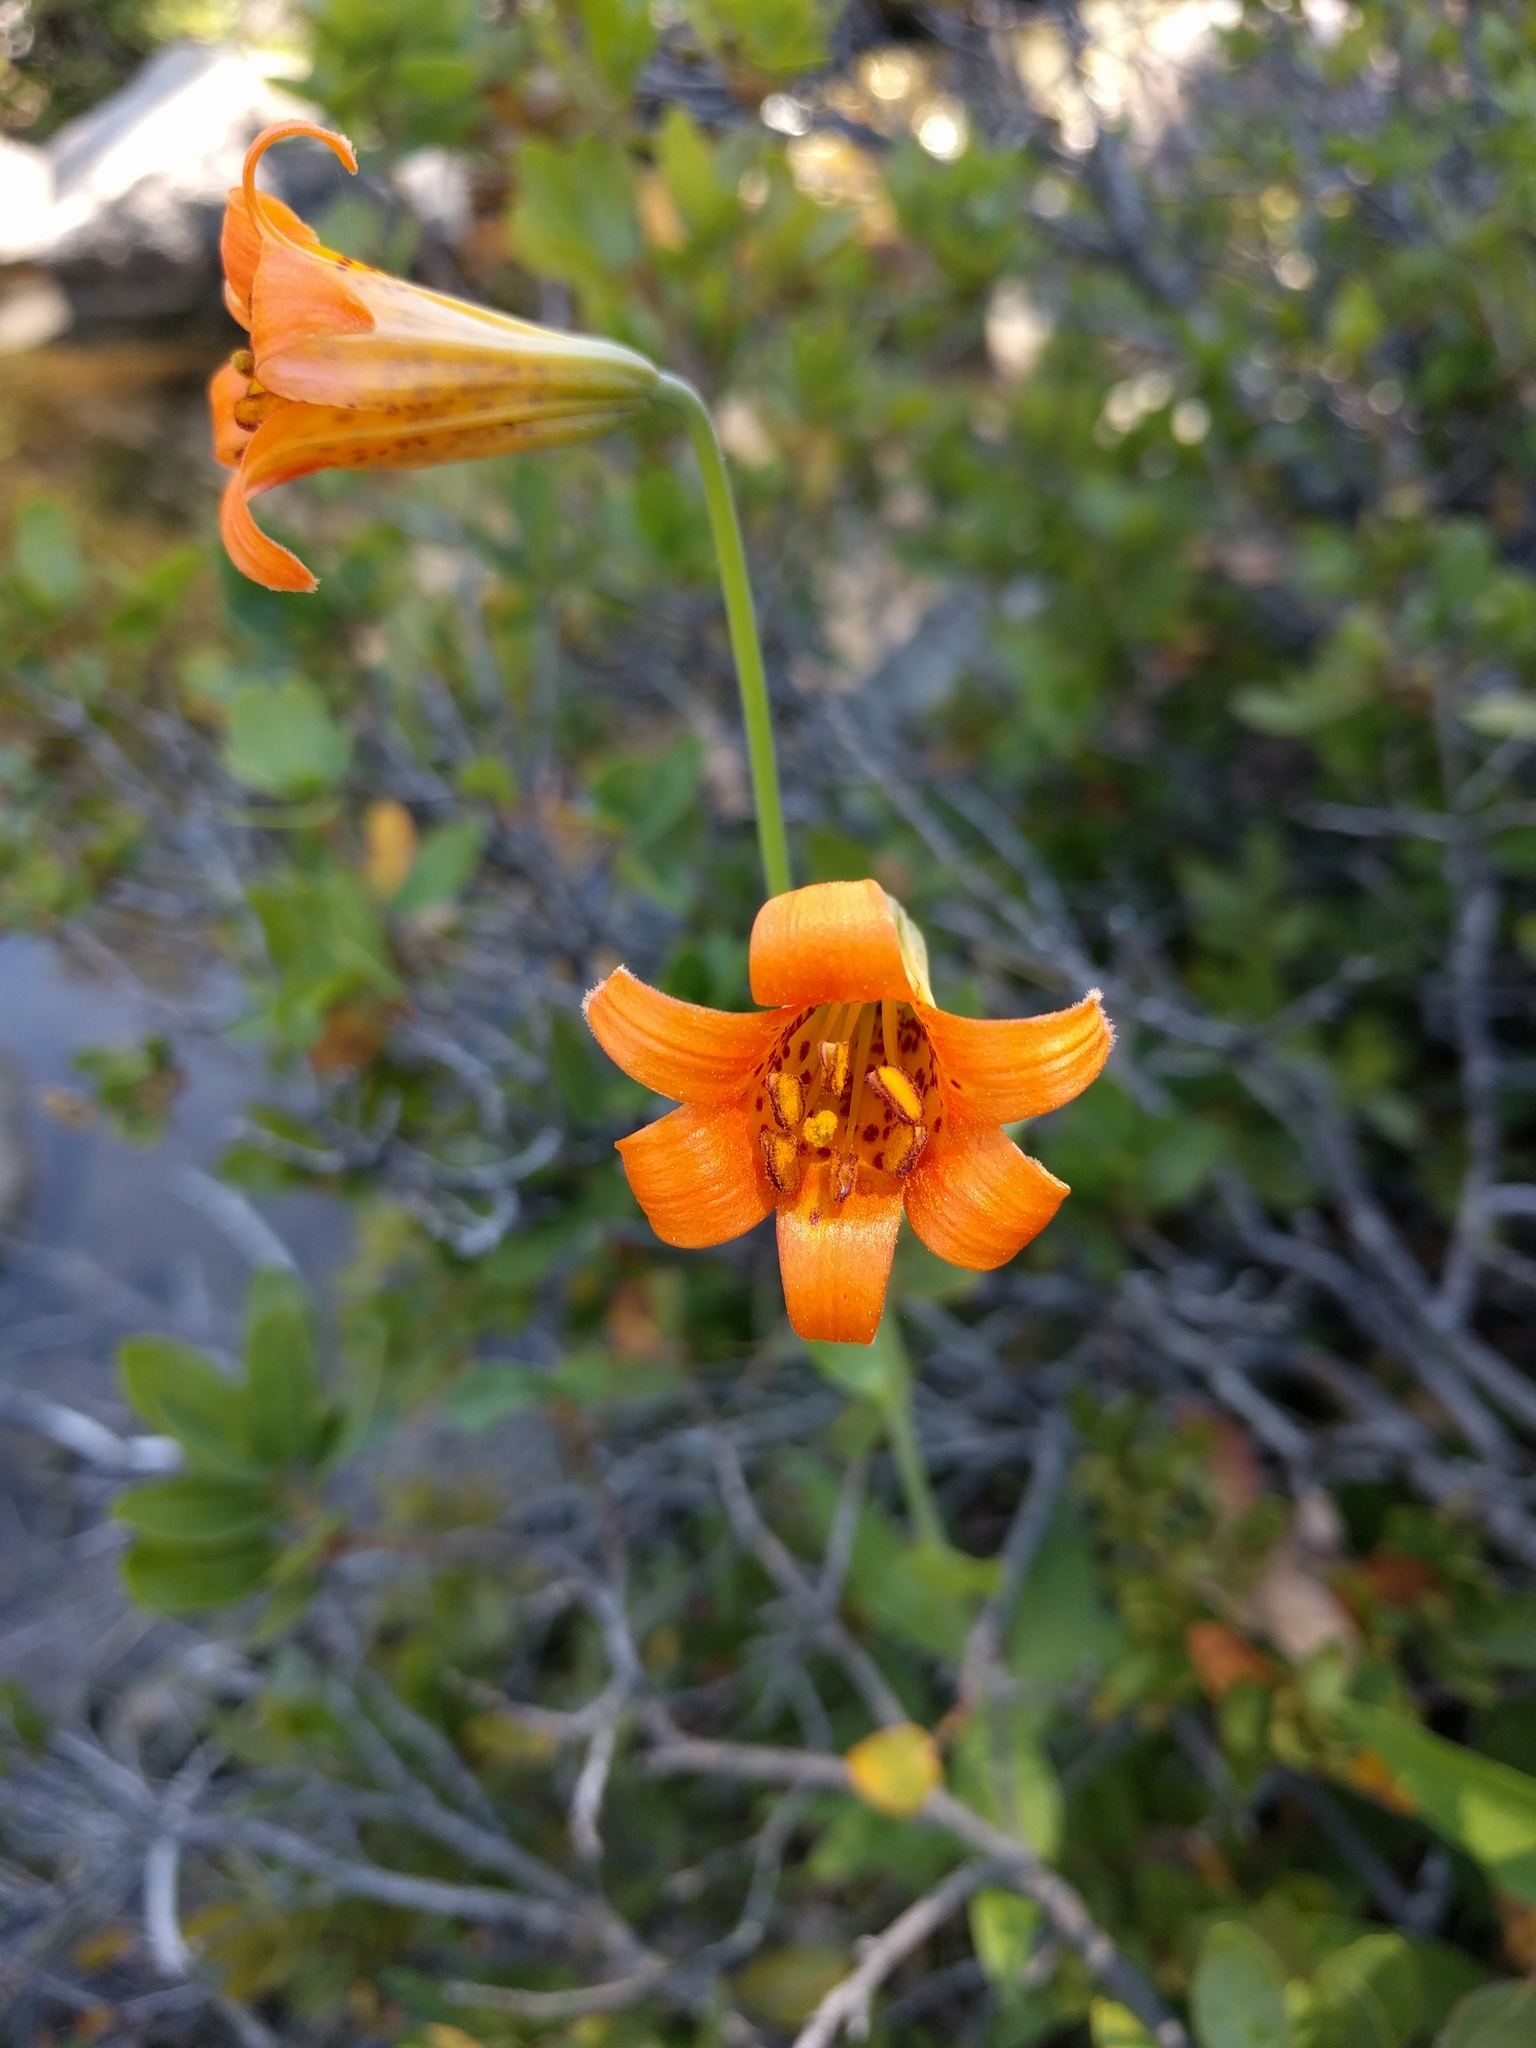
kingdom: Plantae
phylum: Tracheophyta
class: Liliopsida
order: Liliales
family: Liliaceae
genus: Lilium
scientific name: Lilium parvum
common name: Alpine lily
